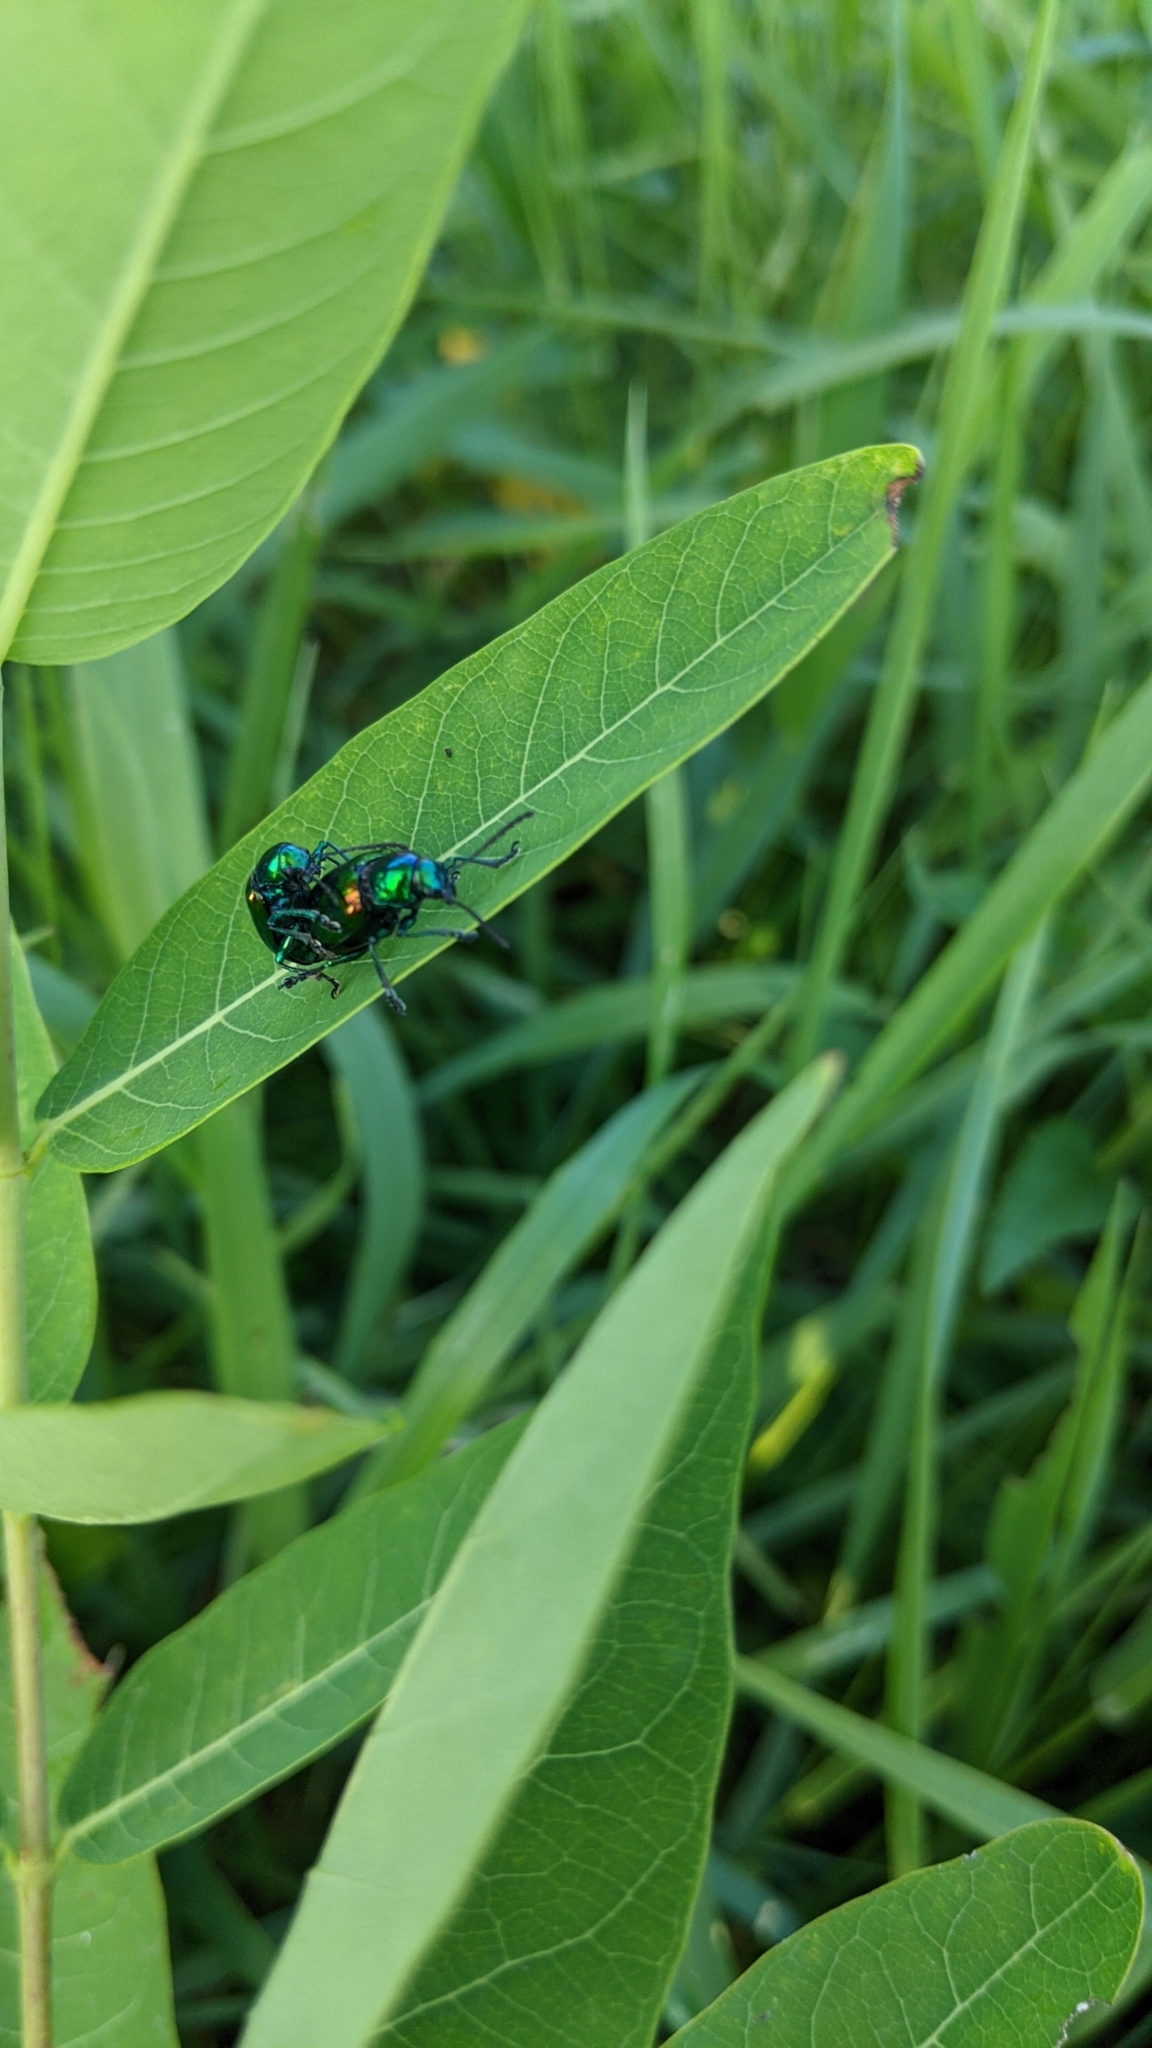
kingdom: Animalia
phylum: Arthropoda
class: Insecta
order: Coleoptera
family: Chrysomelidae
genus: Chrysochus
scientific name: Chrysochus auratus
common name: Dogbane leaf beetle
